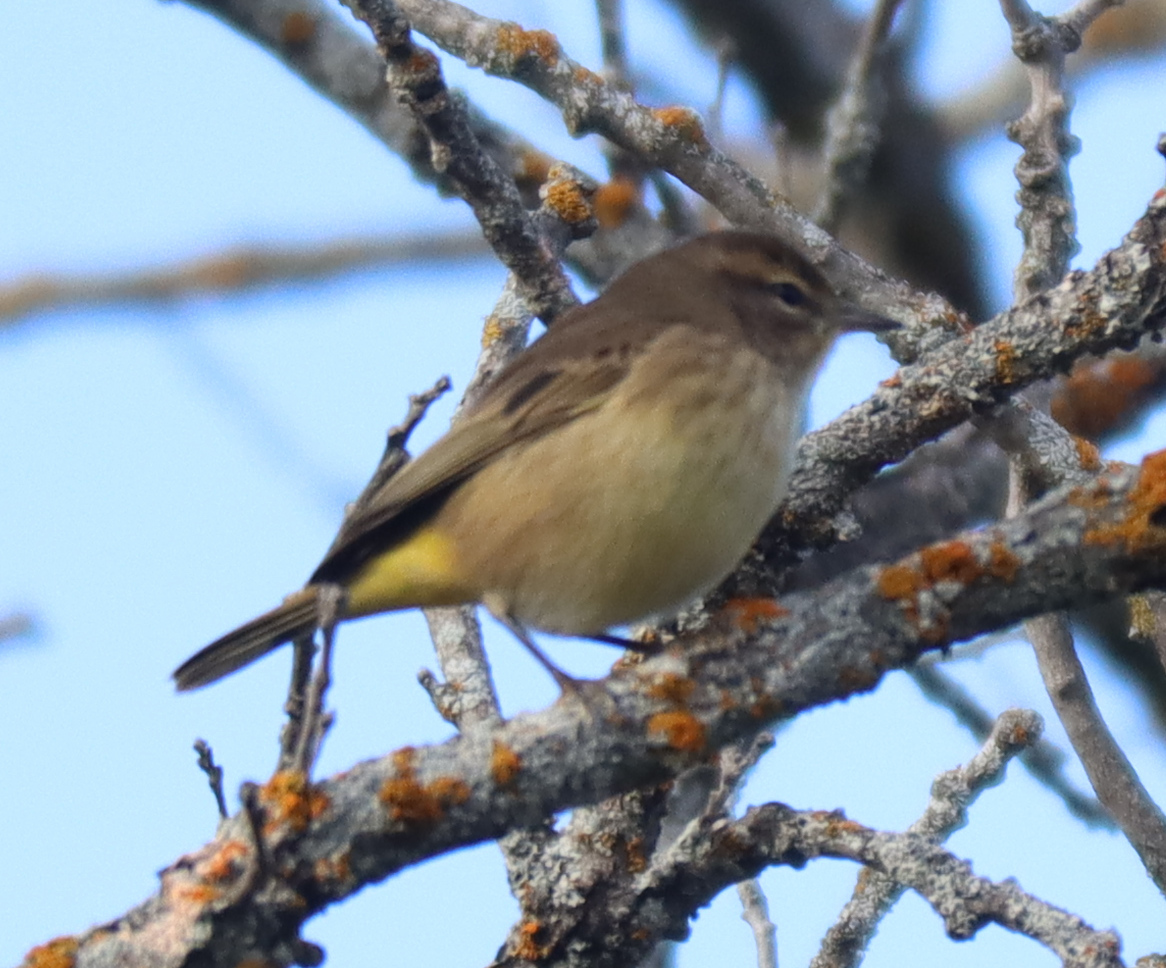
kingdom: Animalia
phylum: Chordata
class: Aves
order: Passeriformes
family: Parulidae
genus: Setophaga
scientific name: Setophaga palmarum
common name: Palm warbler
